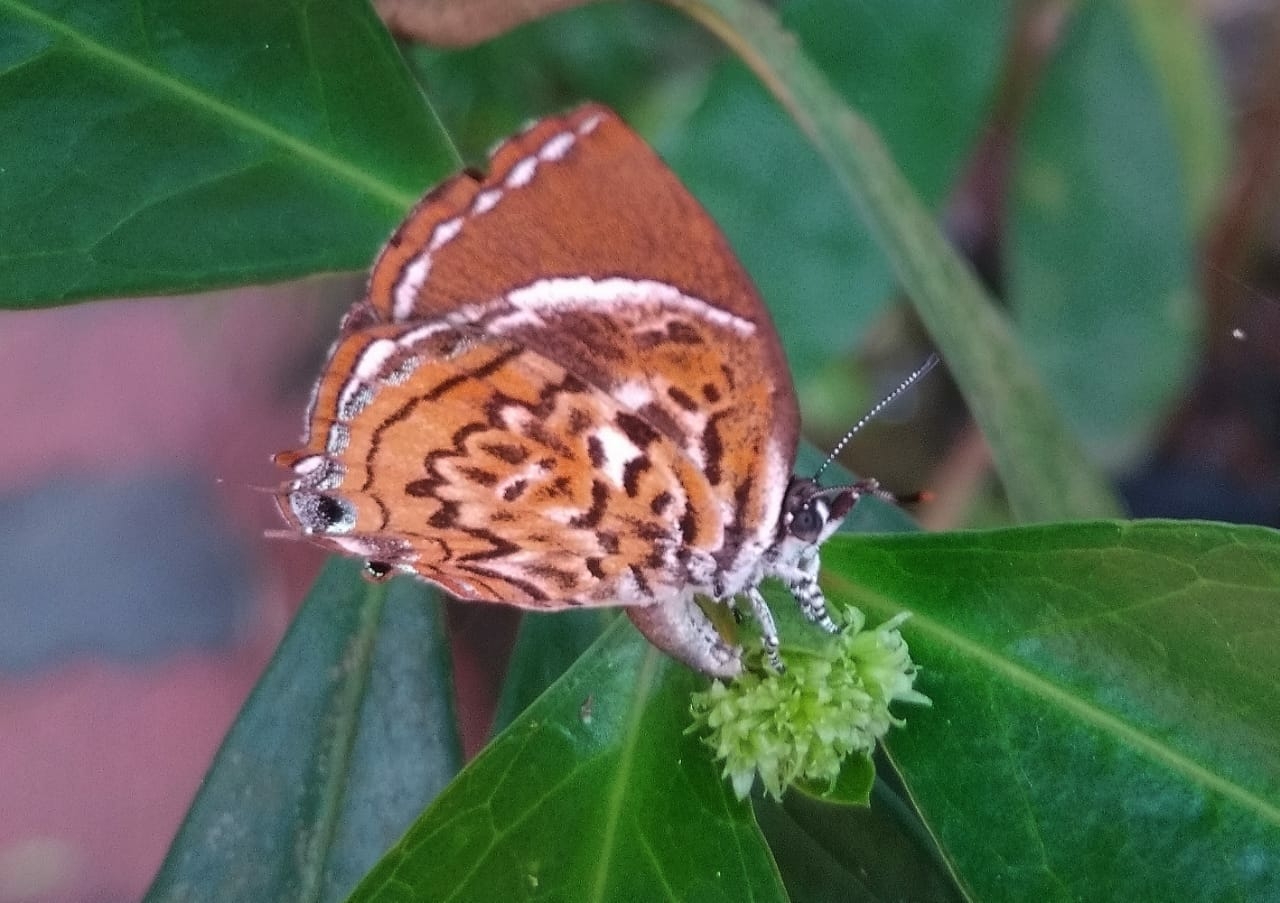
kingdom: Animalia
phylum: Arthropoda
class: Insecta
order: Lepidoptera
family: Lycaenidae
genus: Rathinda
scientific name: Rathinda amor
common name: Monkey puzzle
